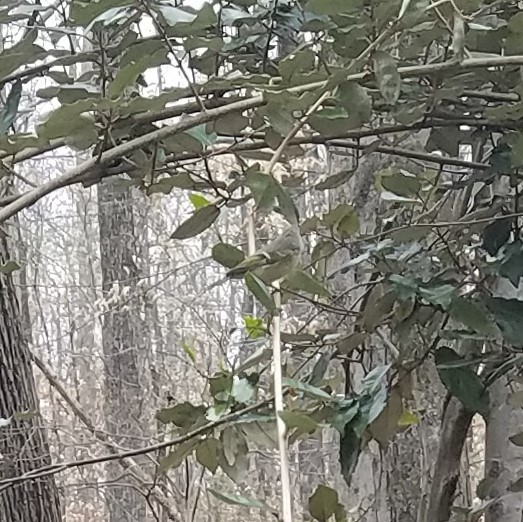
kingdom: Animalia
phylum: Chordata
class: Aves
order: Passeriformes
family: Regulidae
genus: Regulus
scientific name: Regulus calendula
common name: Ruby-crowned kinglet
